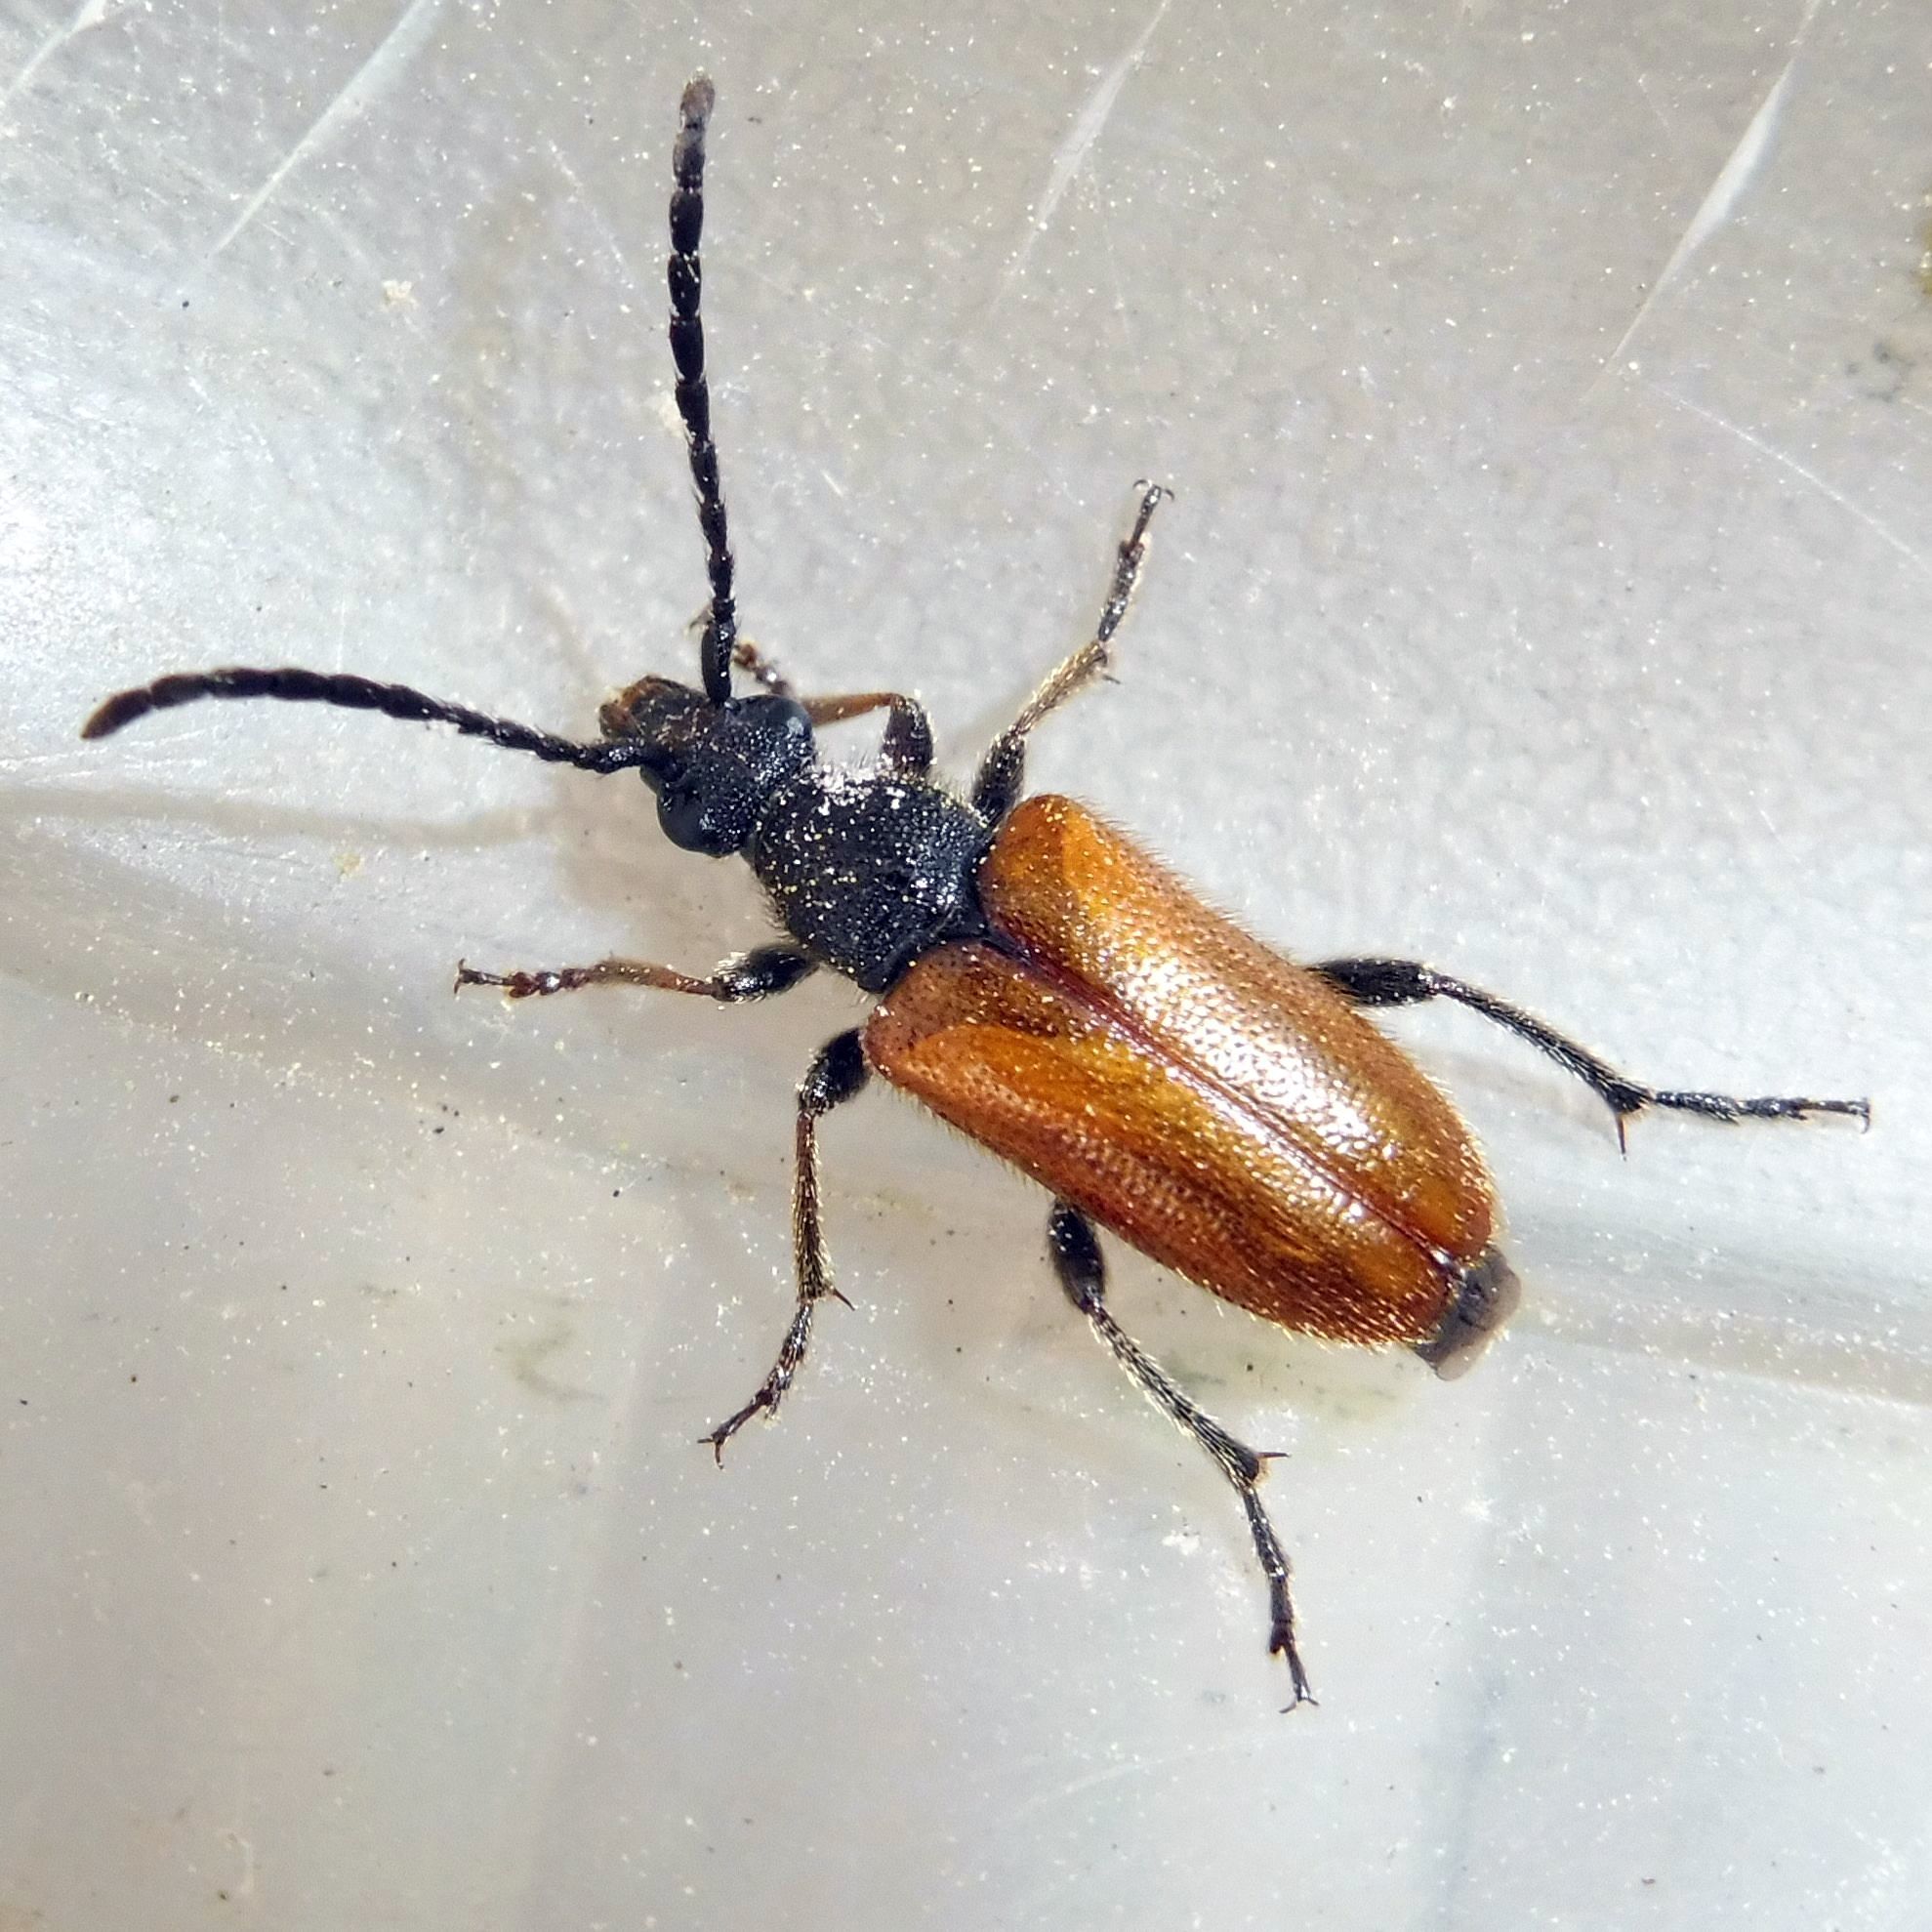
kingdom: Animalia
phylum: Arthropoda
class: Insecta
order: Coleoptera
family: Cerambycidae
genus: Pseudovadonia
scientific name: Pseudovadonia livida
